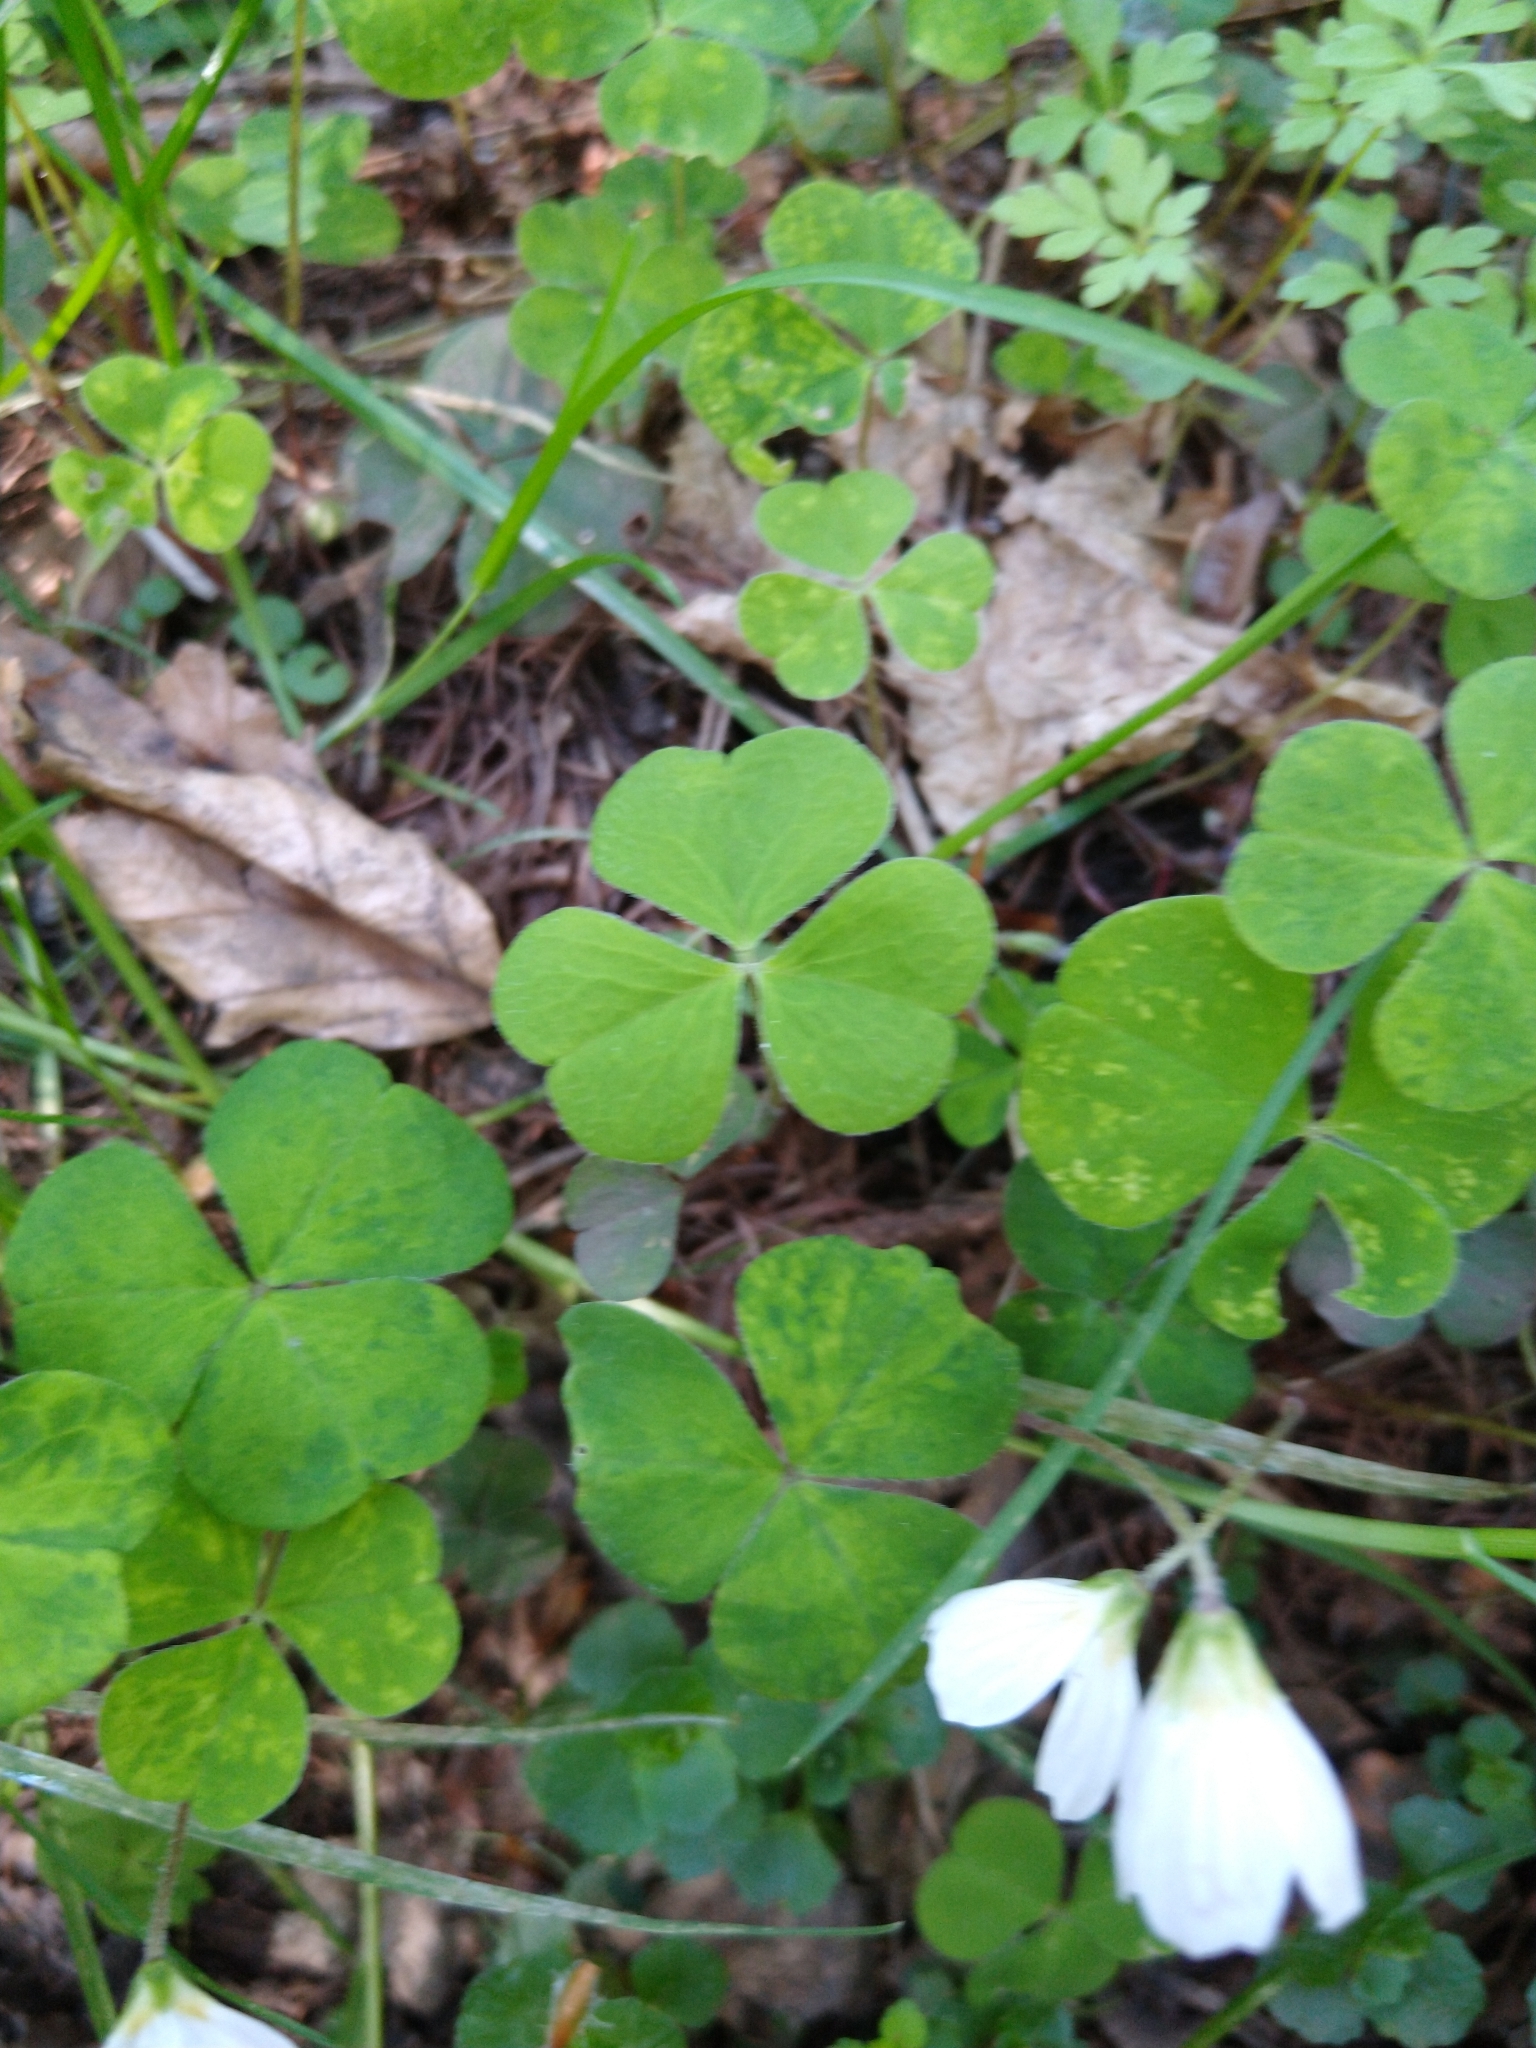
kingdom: Plantae
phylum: Tracheophyta
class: Magnoliopsida
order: Oxalidales
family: Oxalidaceae
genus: Oxalis
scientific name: Oxalis acetosella
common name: Wood-sorrel
